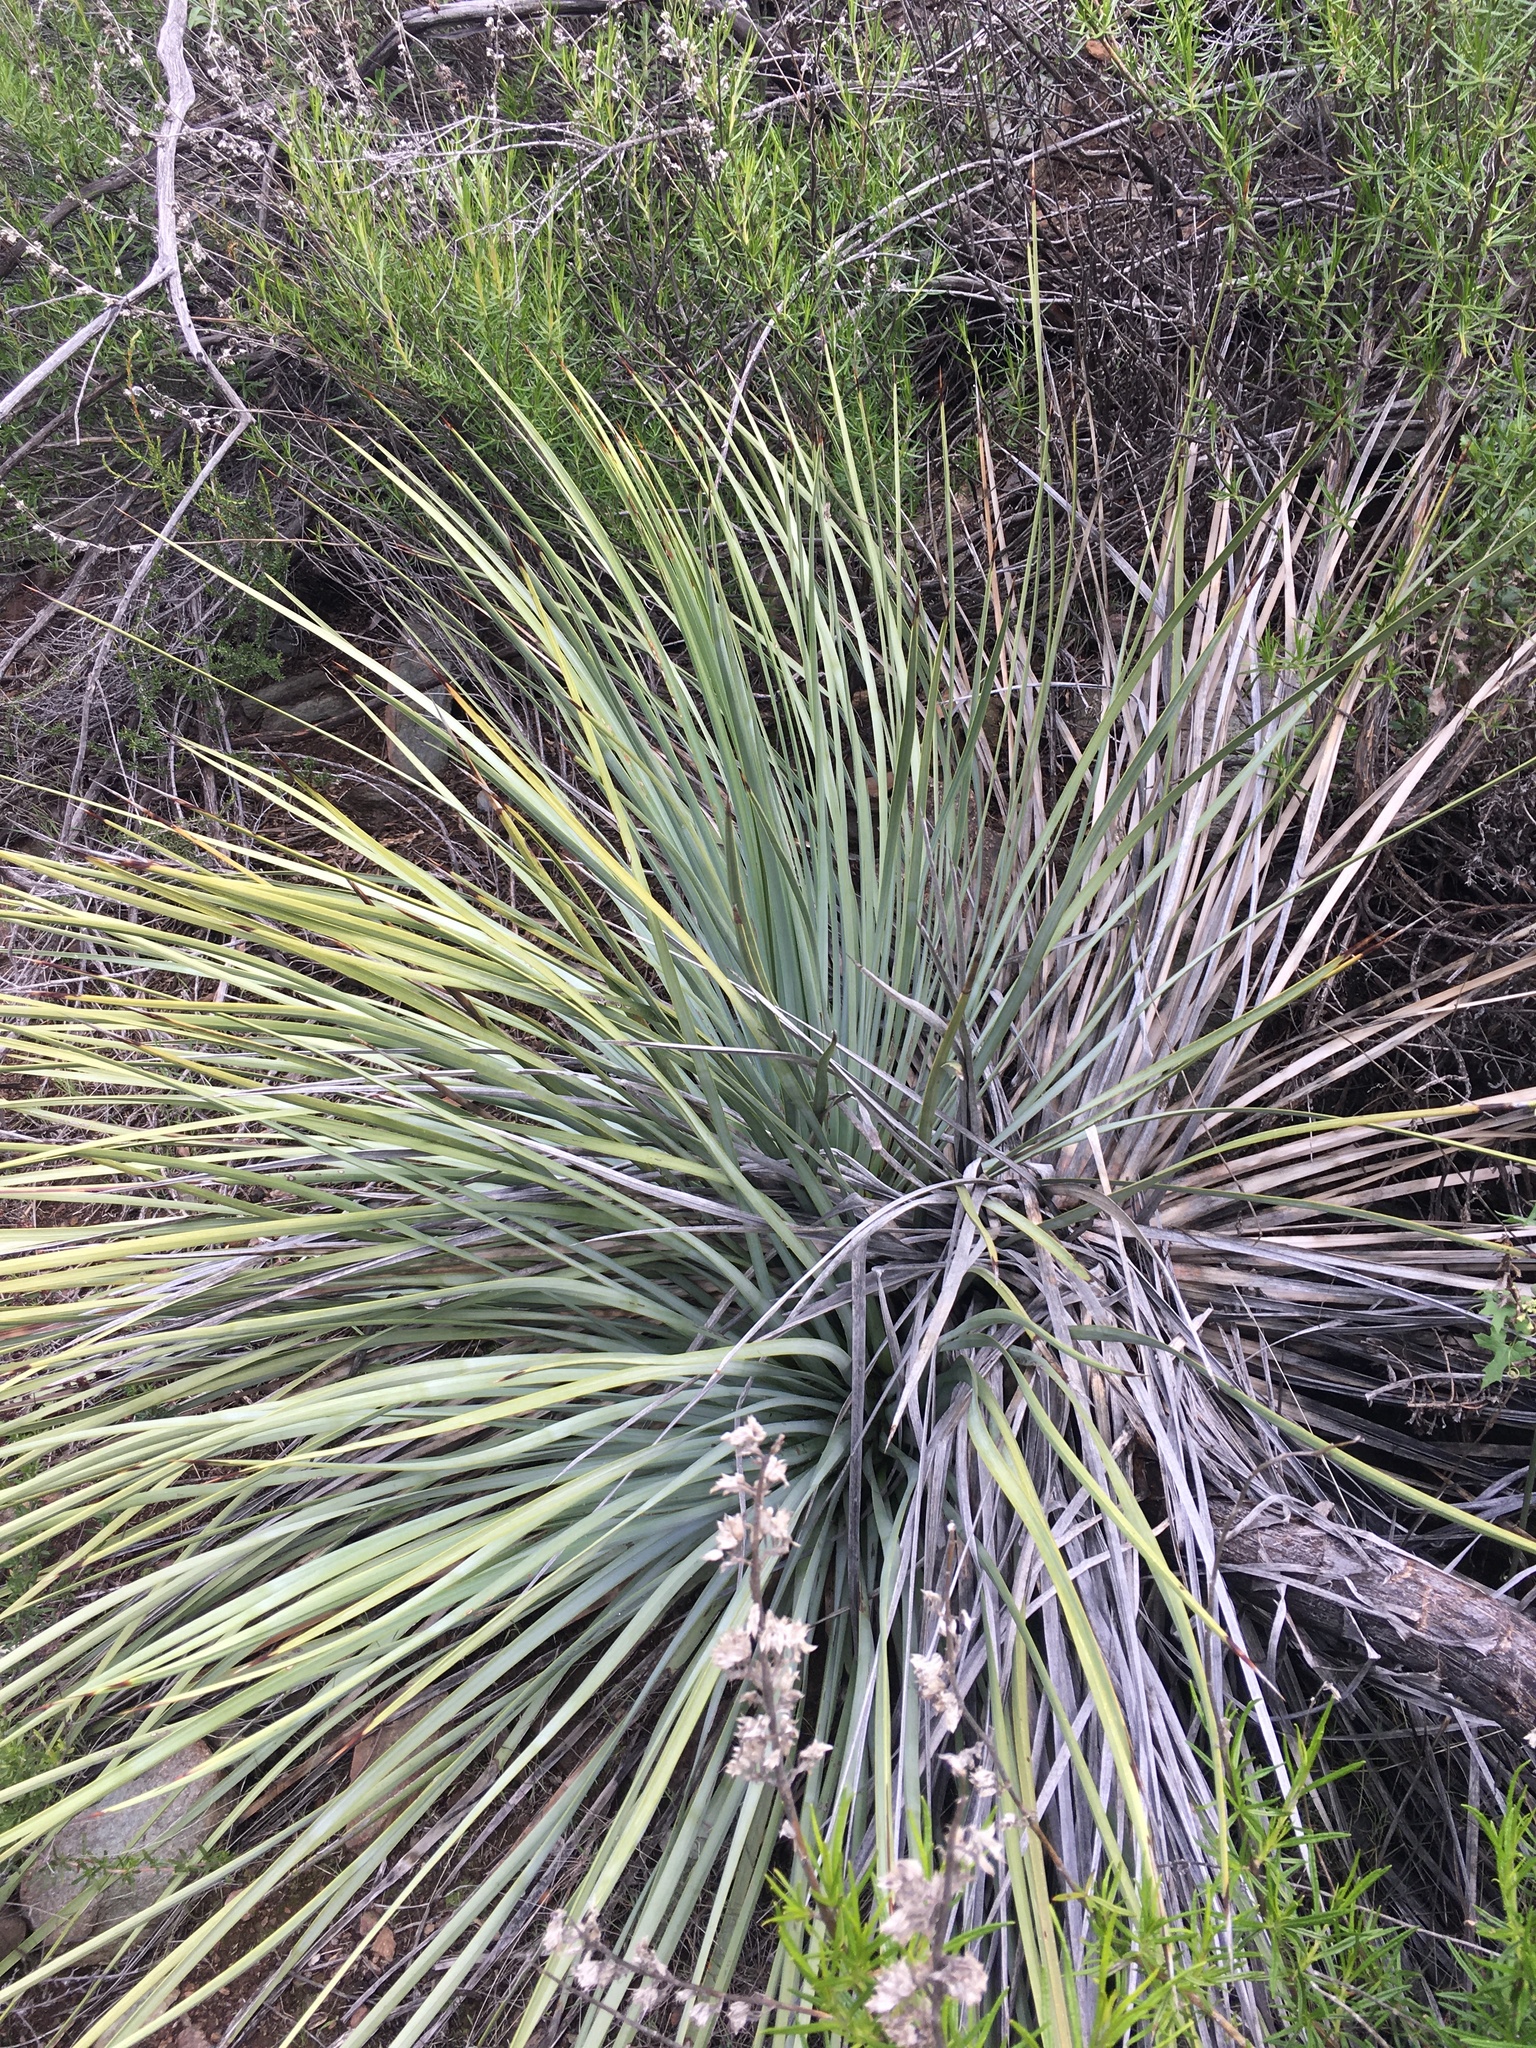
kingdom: Plantae
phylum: Tracheophyta
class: Liliopsida
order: Asparagales
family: Asparagaceae
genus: Hesperoyucca
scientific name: Hesperoyucca whipplei
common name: Our lord's-candle
